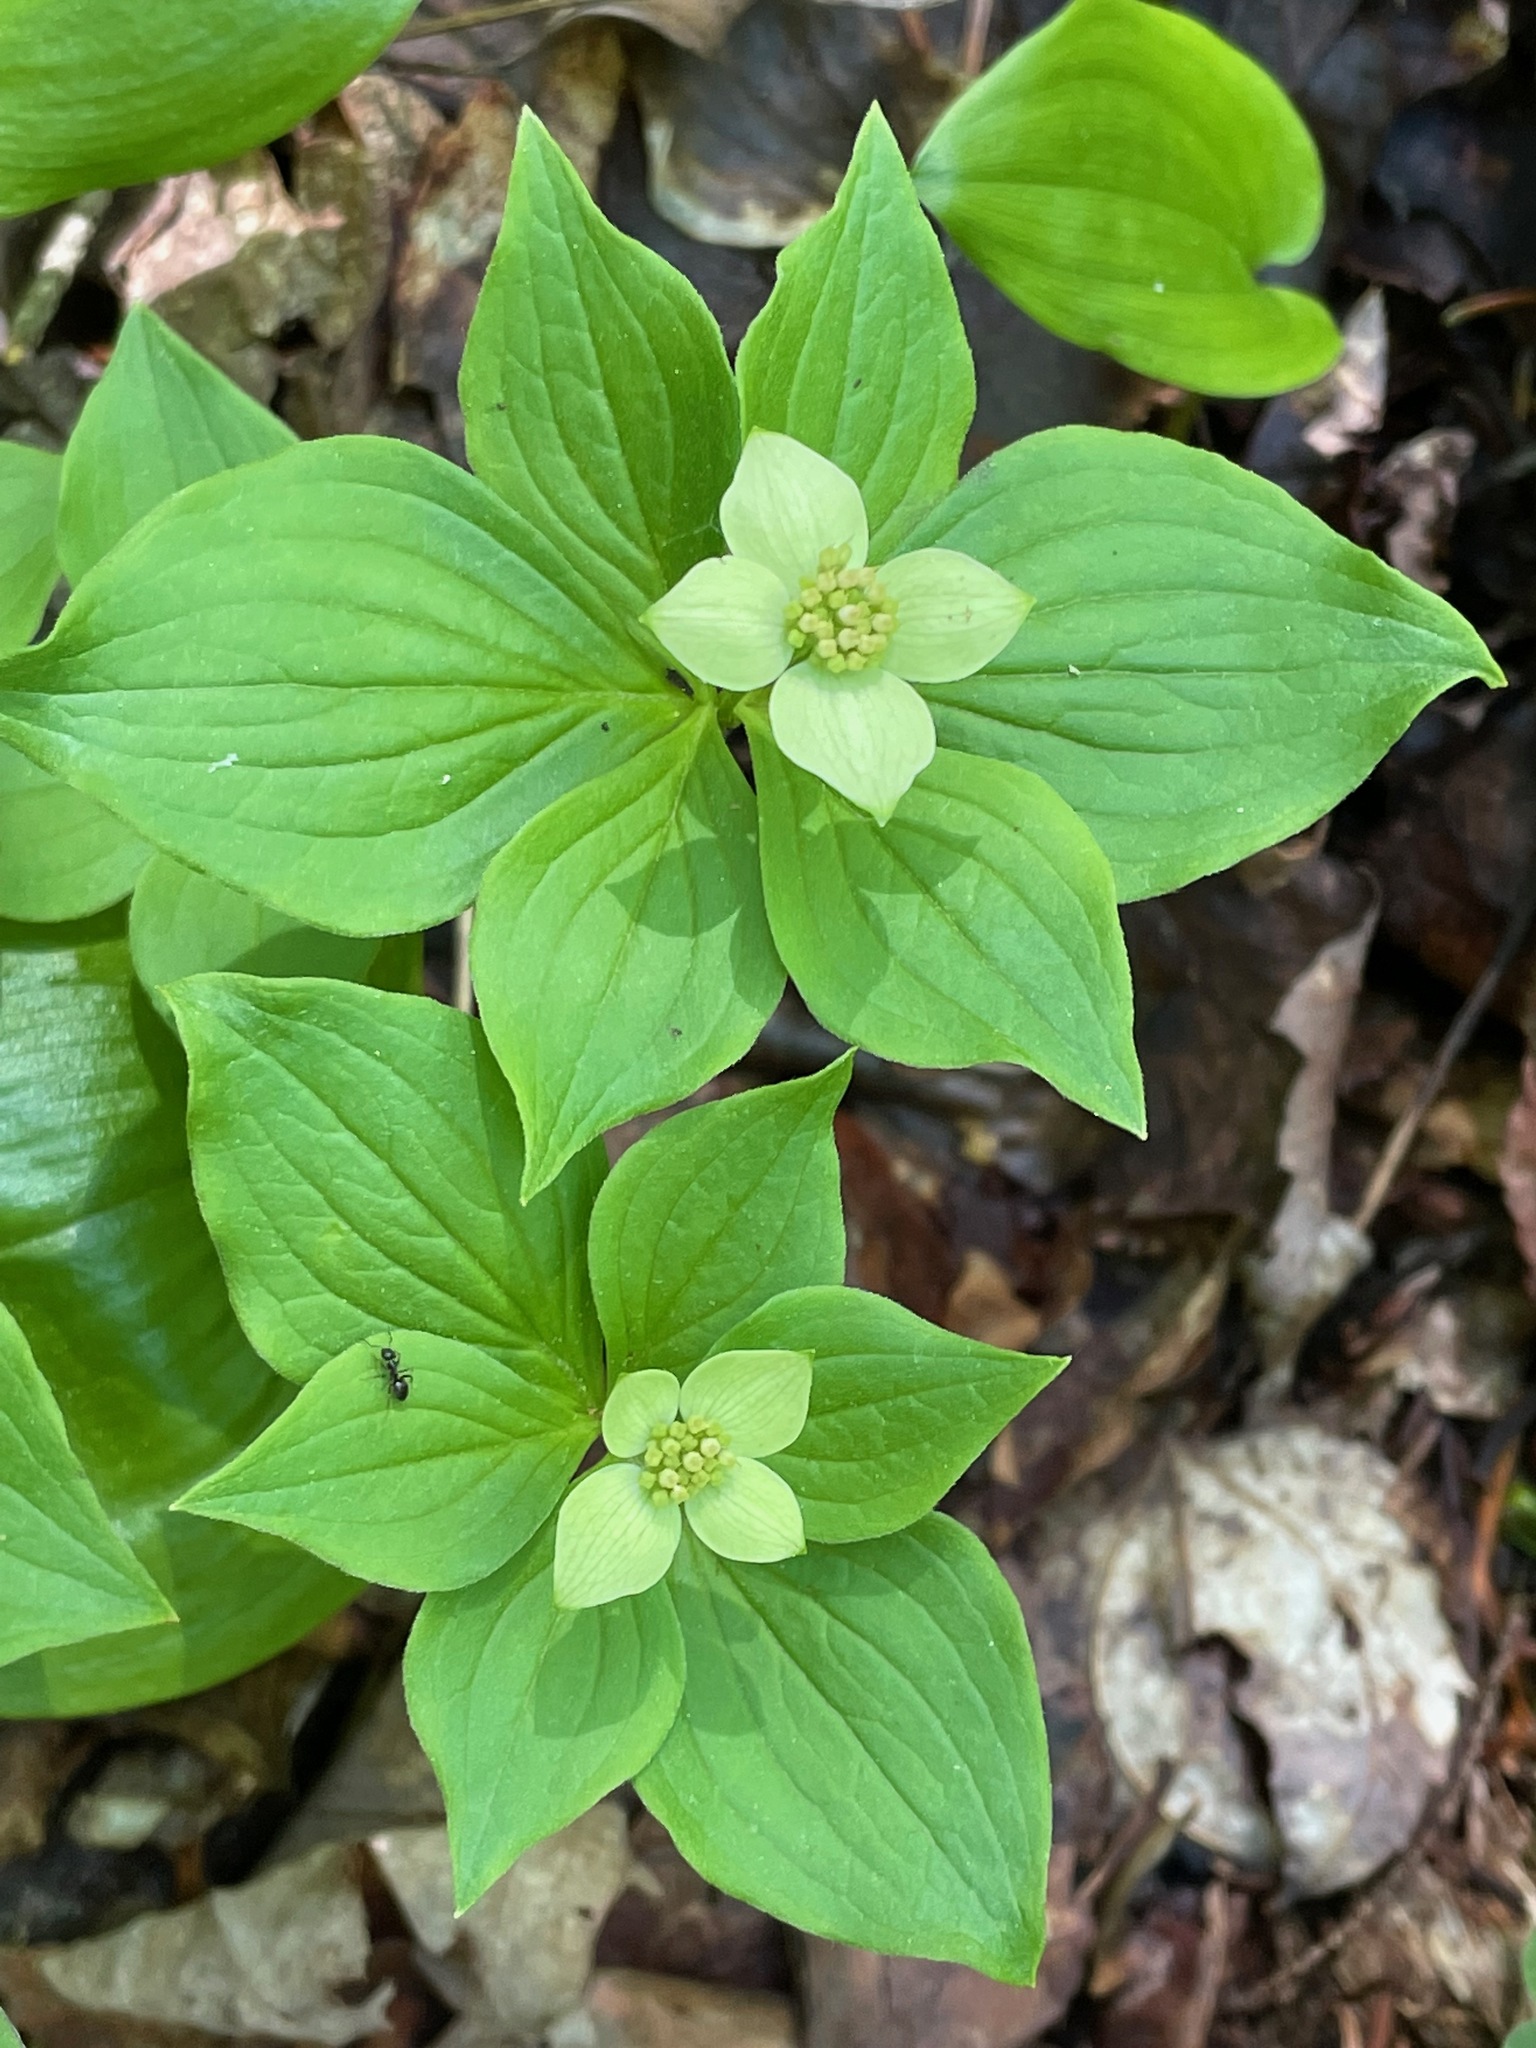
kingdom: Plantae
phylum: Tracheophyta
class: Magnoliopsida
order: Cornales
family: Cornaceae
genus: Cornus
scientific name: Cornus canadensis
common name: Creeping dogwood
